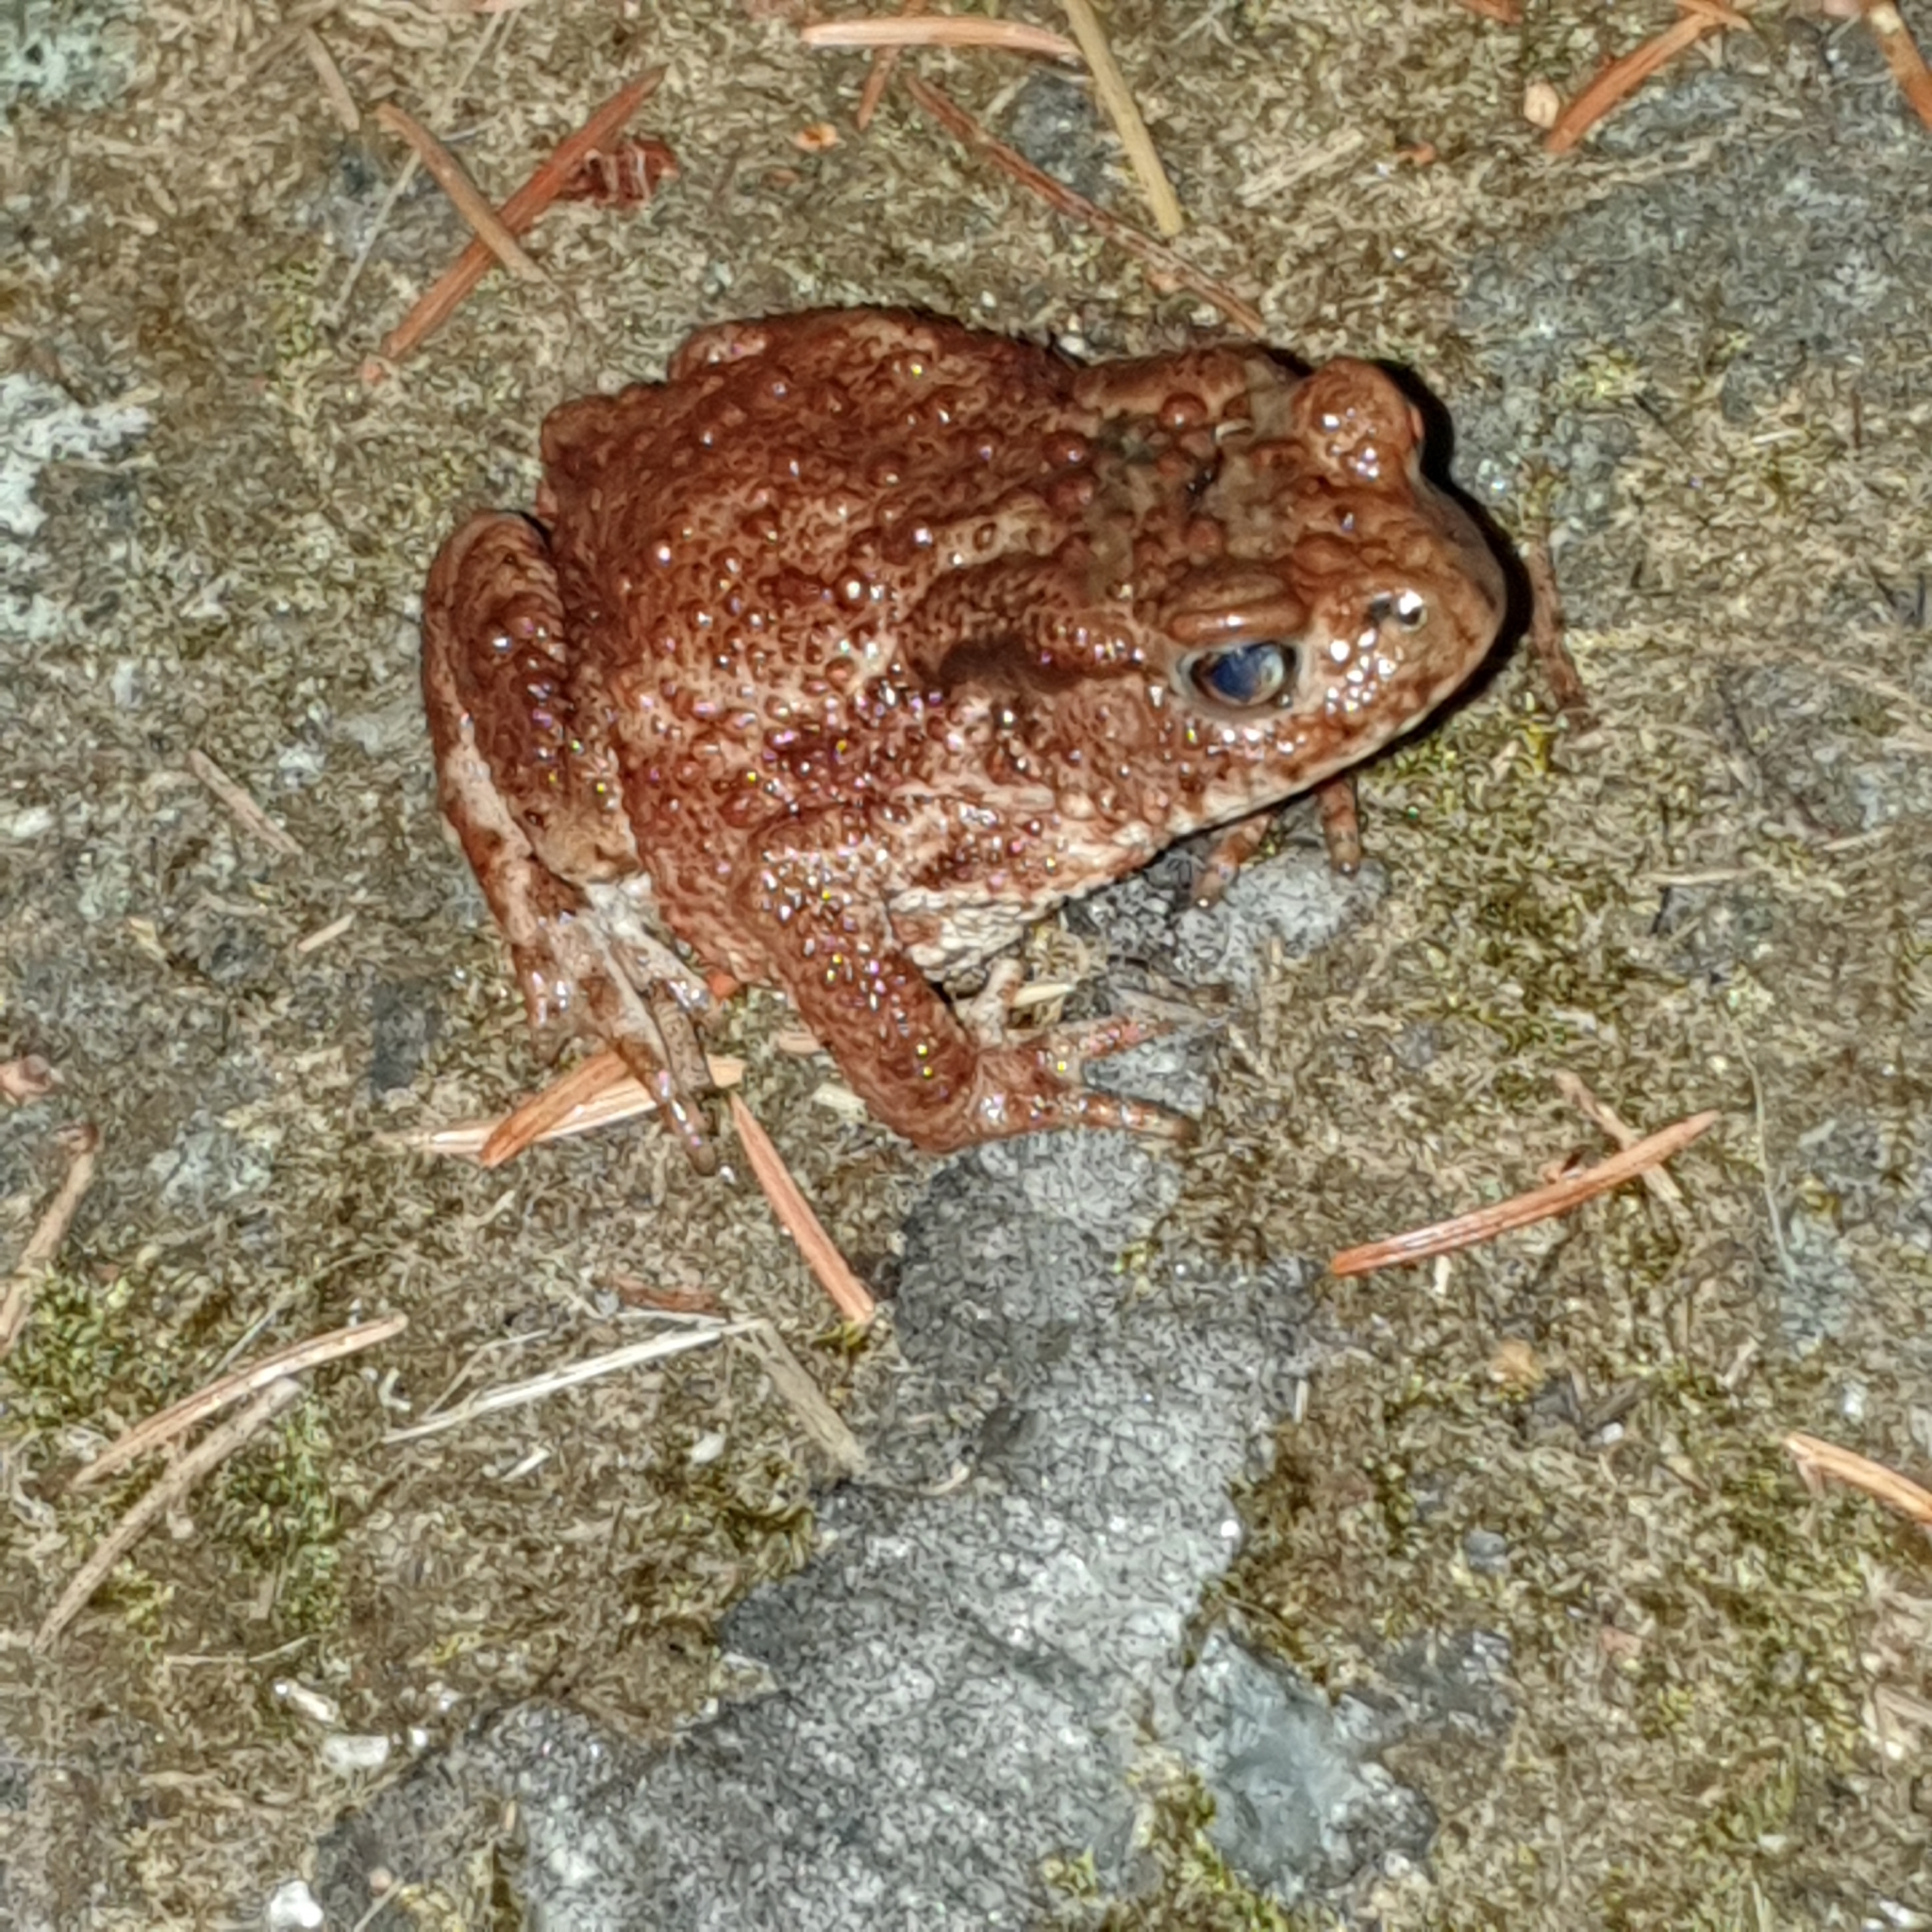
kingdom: Animalia
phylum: Chordata
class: Amphibia
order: Anura
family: Bufonidae
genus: Bufo
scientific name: Bufo bufo
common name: Common toad
